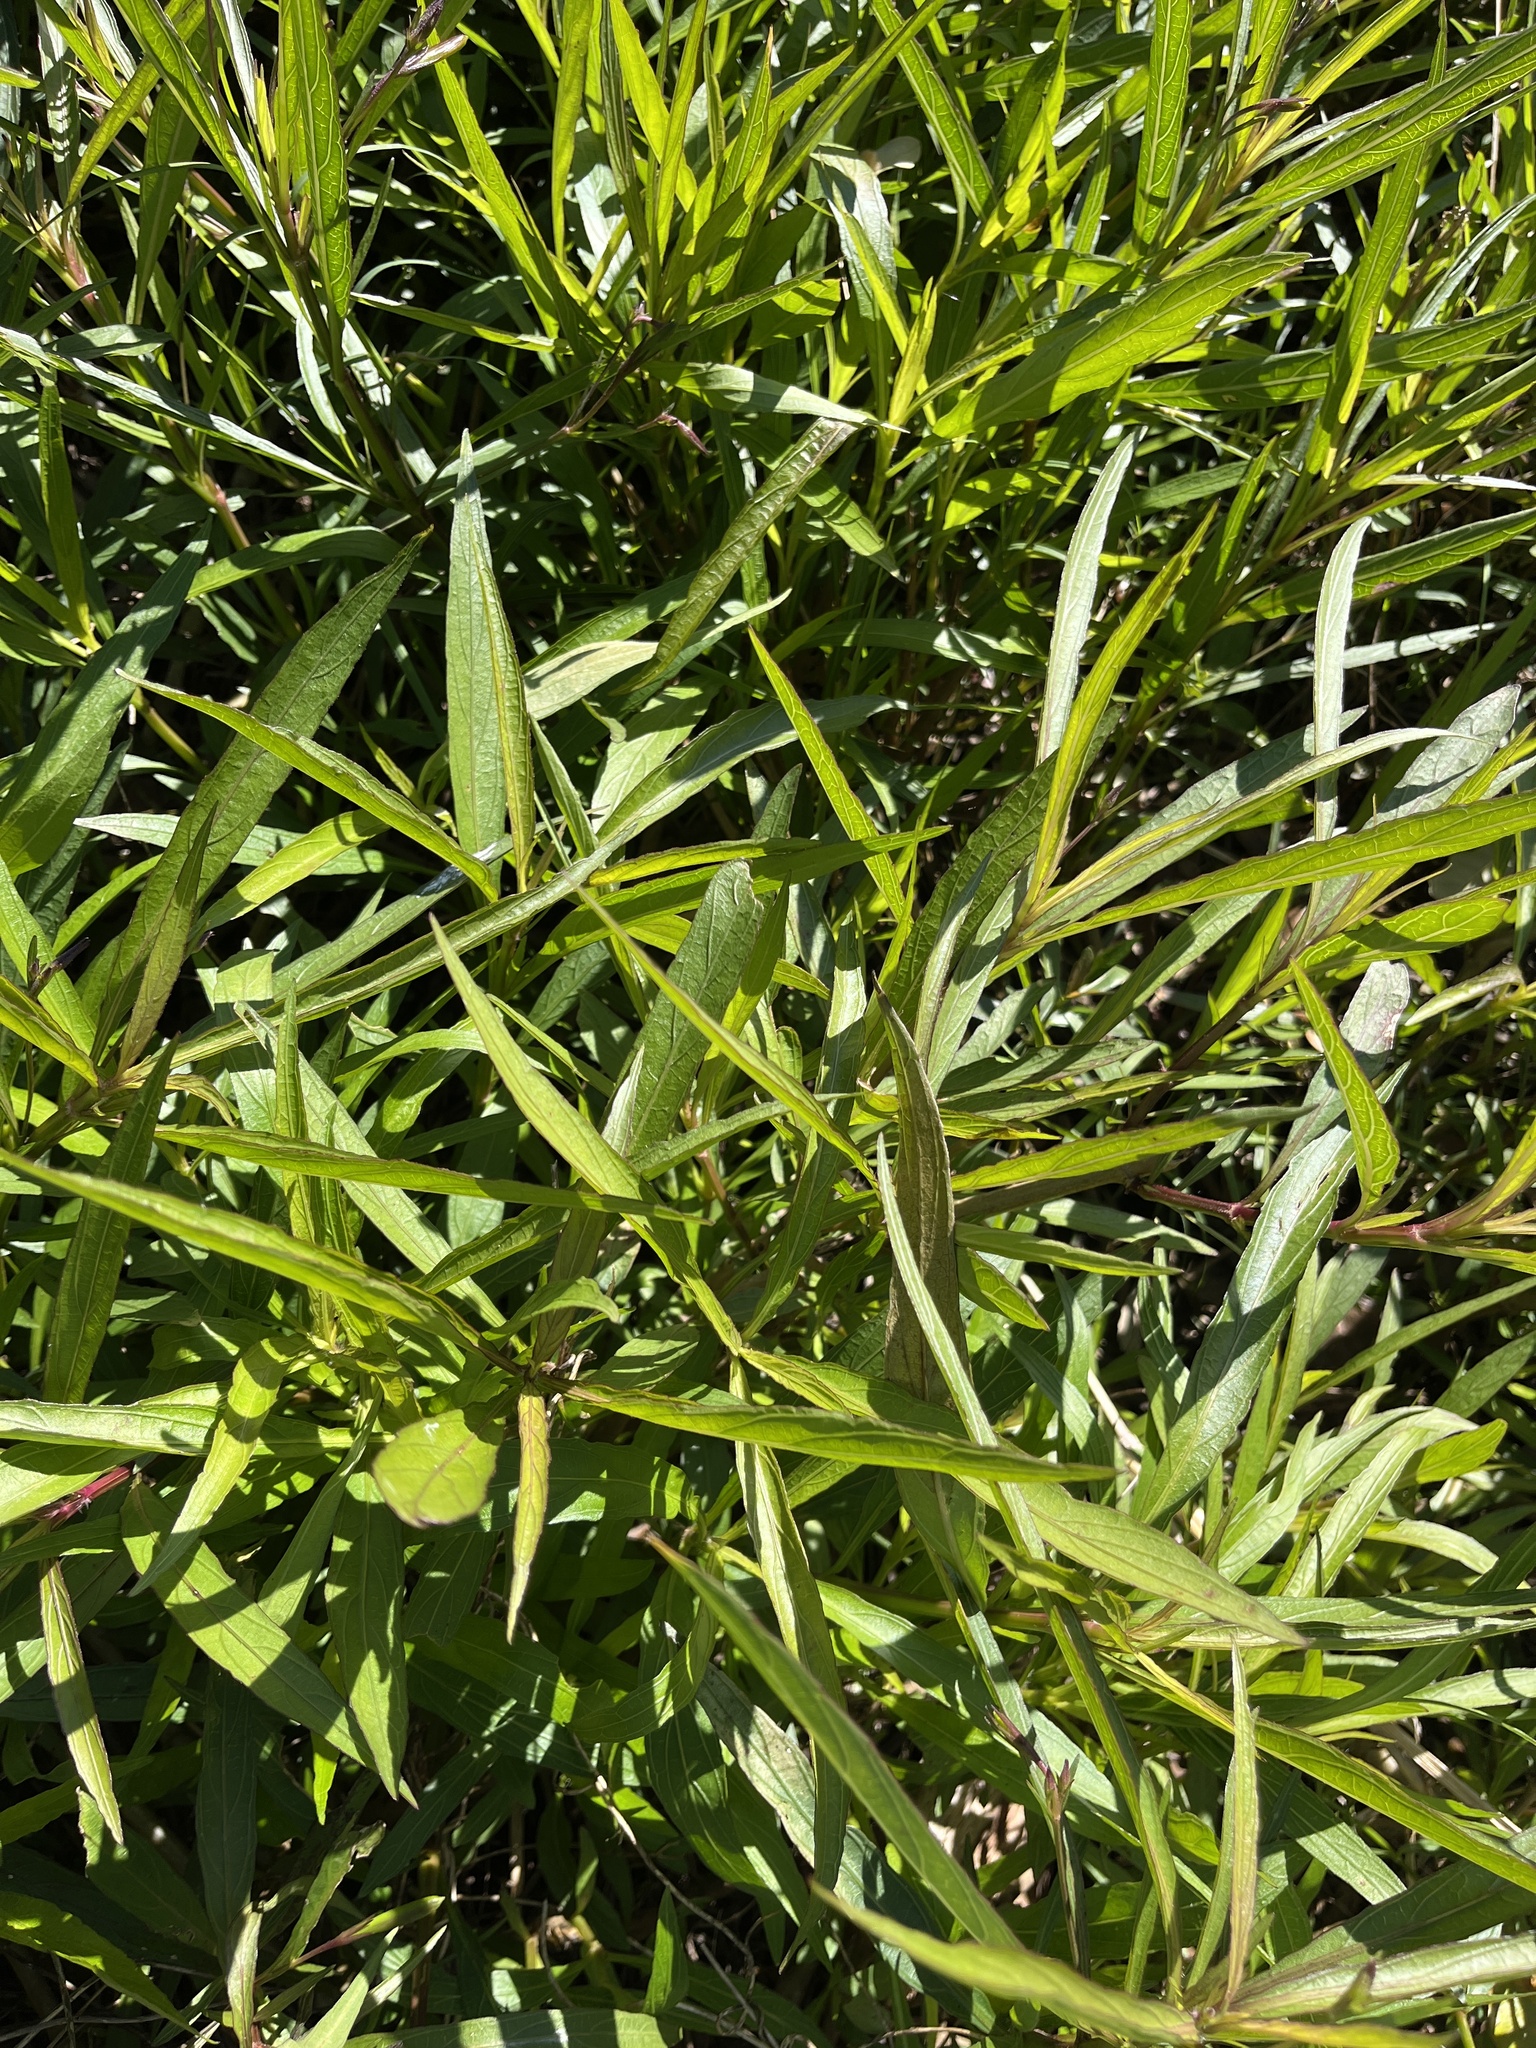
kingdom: Plantae
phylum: Tracheophyta
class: Magnoliopsida
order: Lamiales
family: Acanthaceae
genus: Ruellia
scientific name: Ruellia simplex
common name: Softseed wild petunia
